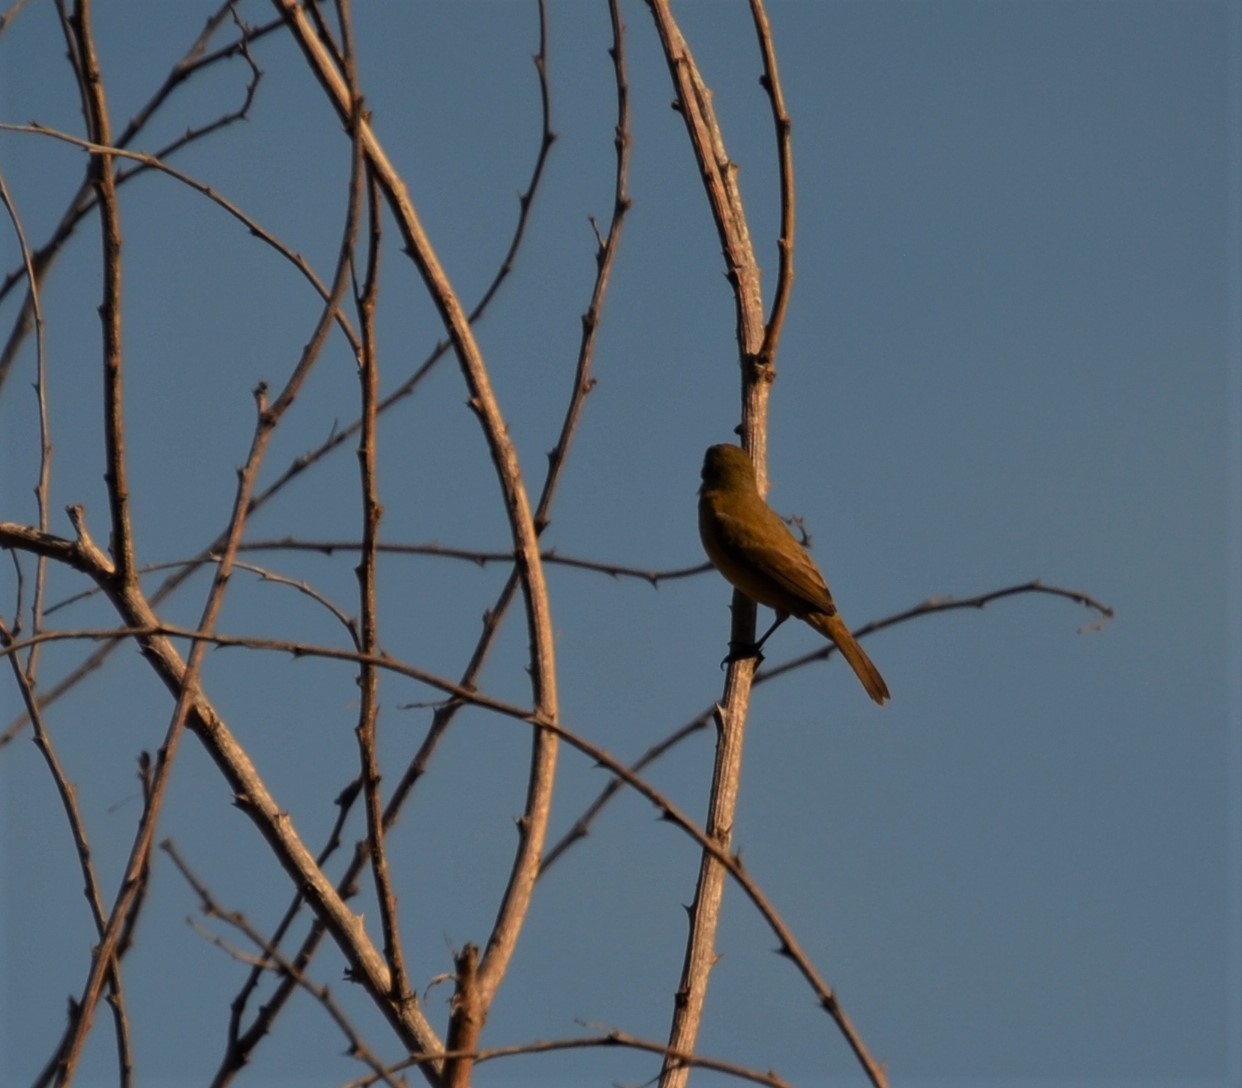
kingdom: Animalia
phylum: Chordata
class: Aves
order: Passeriformes
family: Thraupidae
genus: Sporophila
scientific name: Sporophila torqueola
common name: White-collared seedeater
